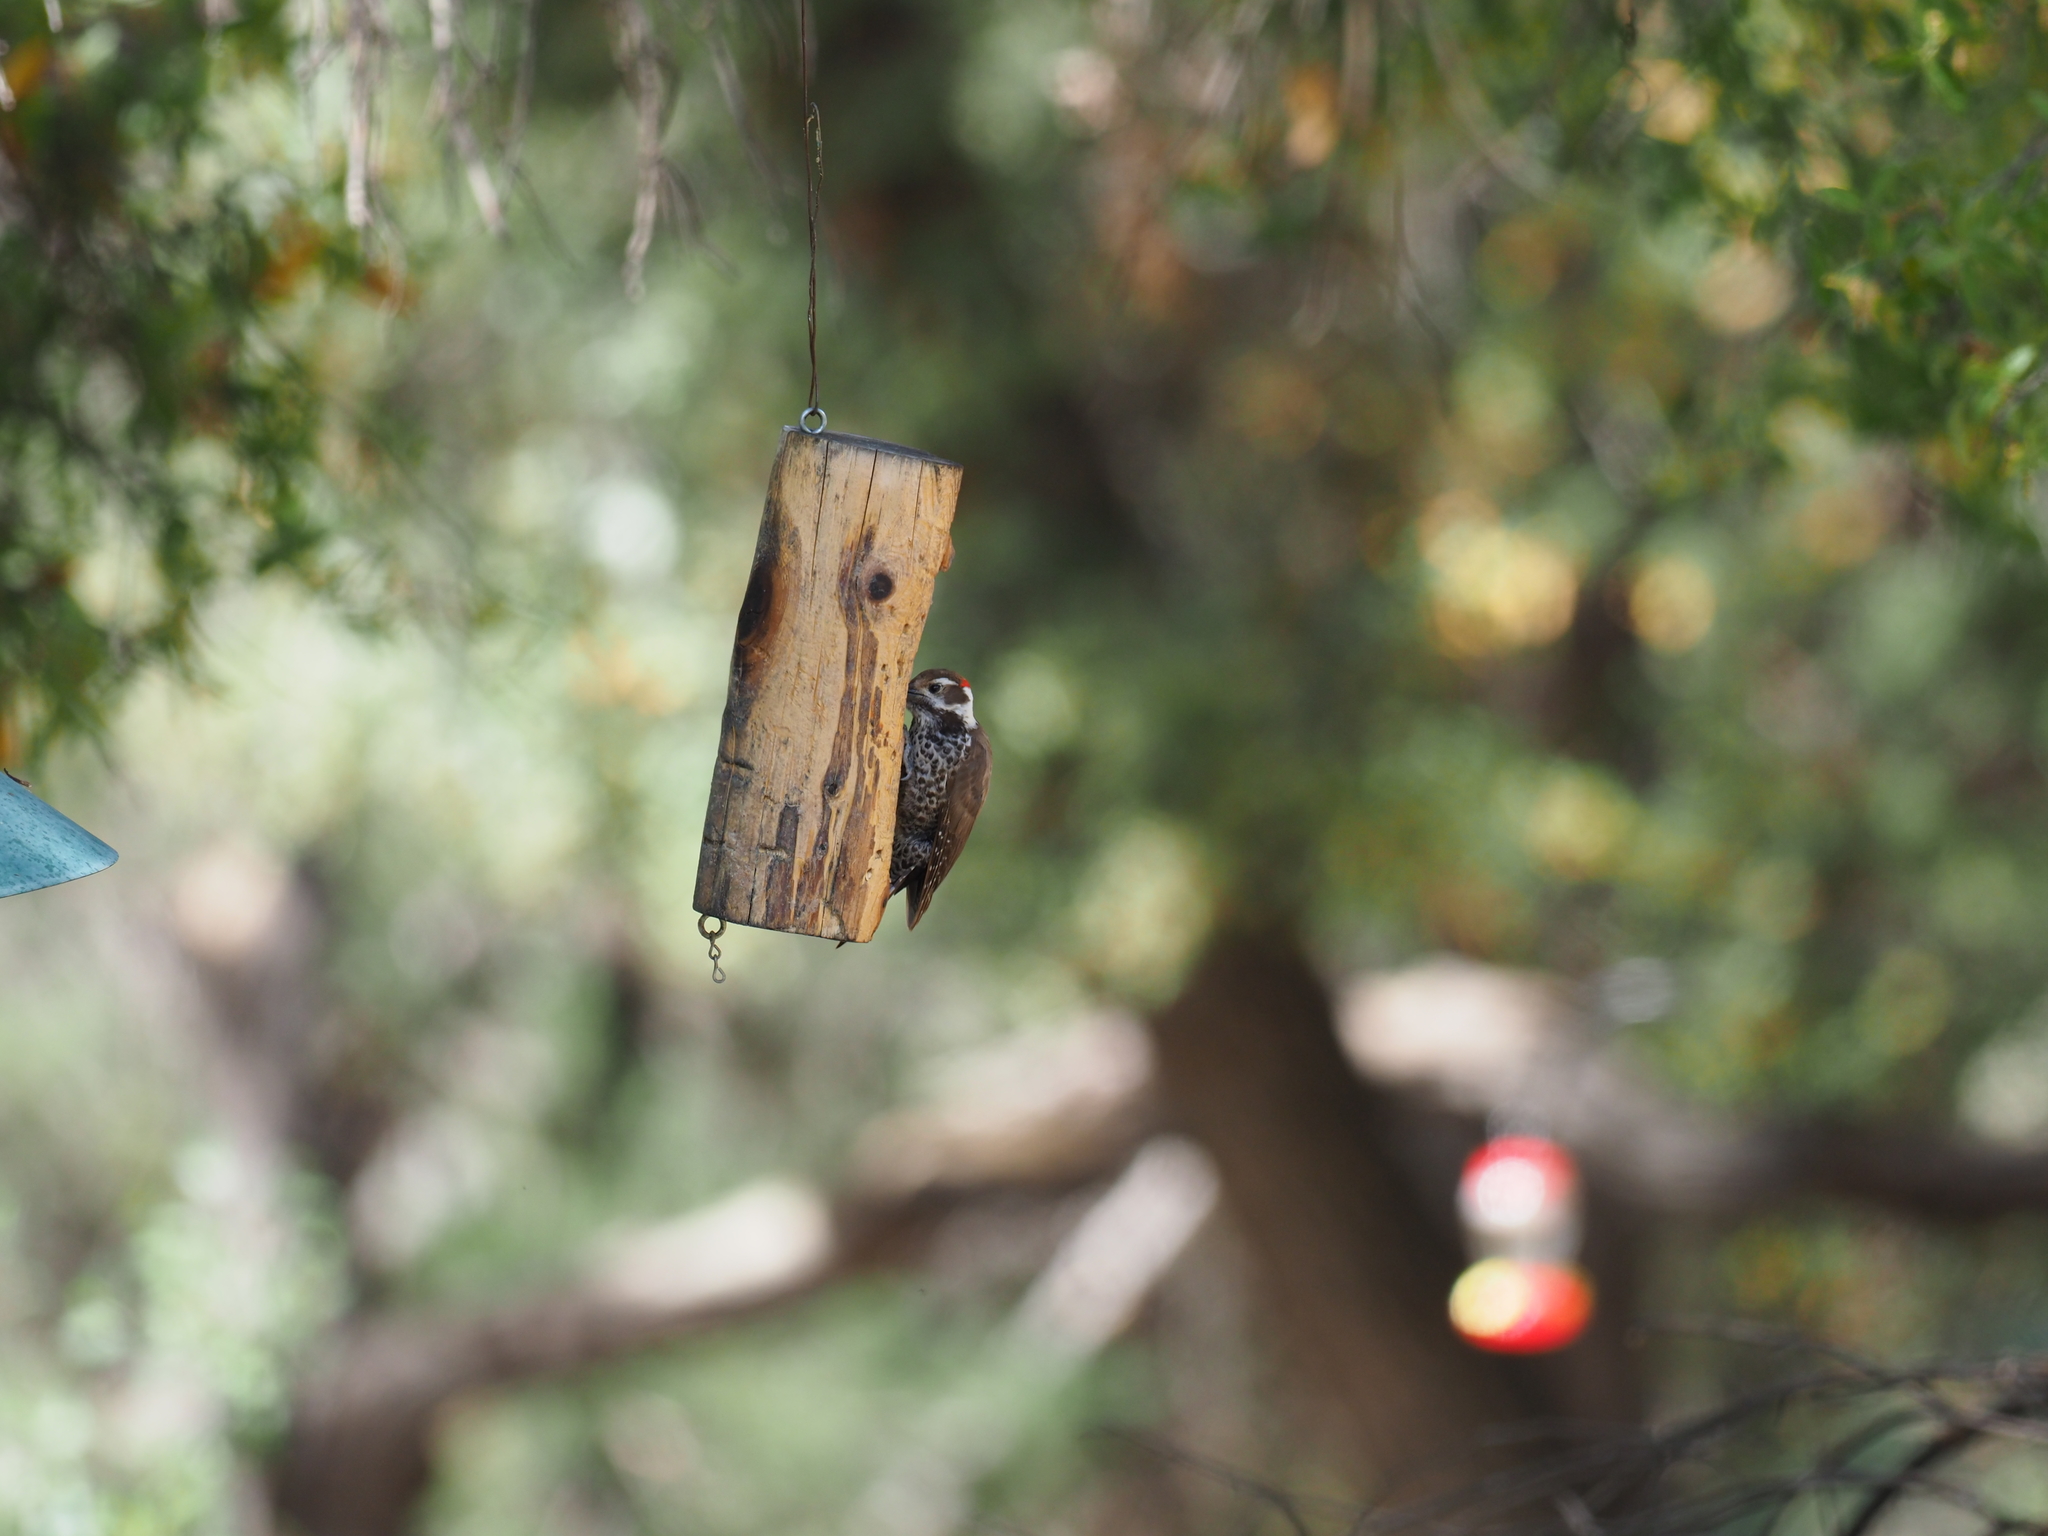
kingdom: Animalia
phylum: Chordata
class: Aves
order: Piciformes
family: Picidae
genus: Leuconotopicus
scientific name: Leuconotopicus arizonae
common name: Arizona woodpecker
